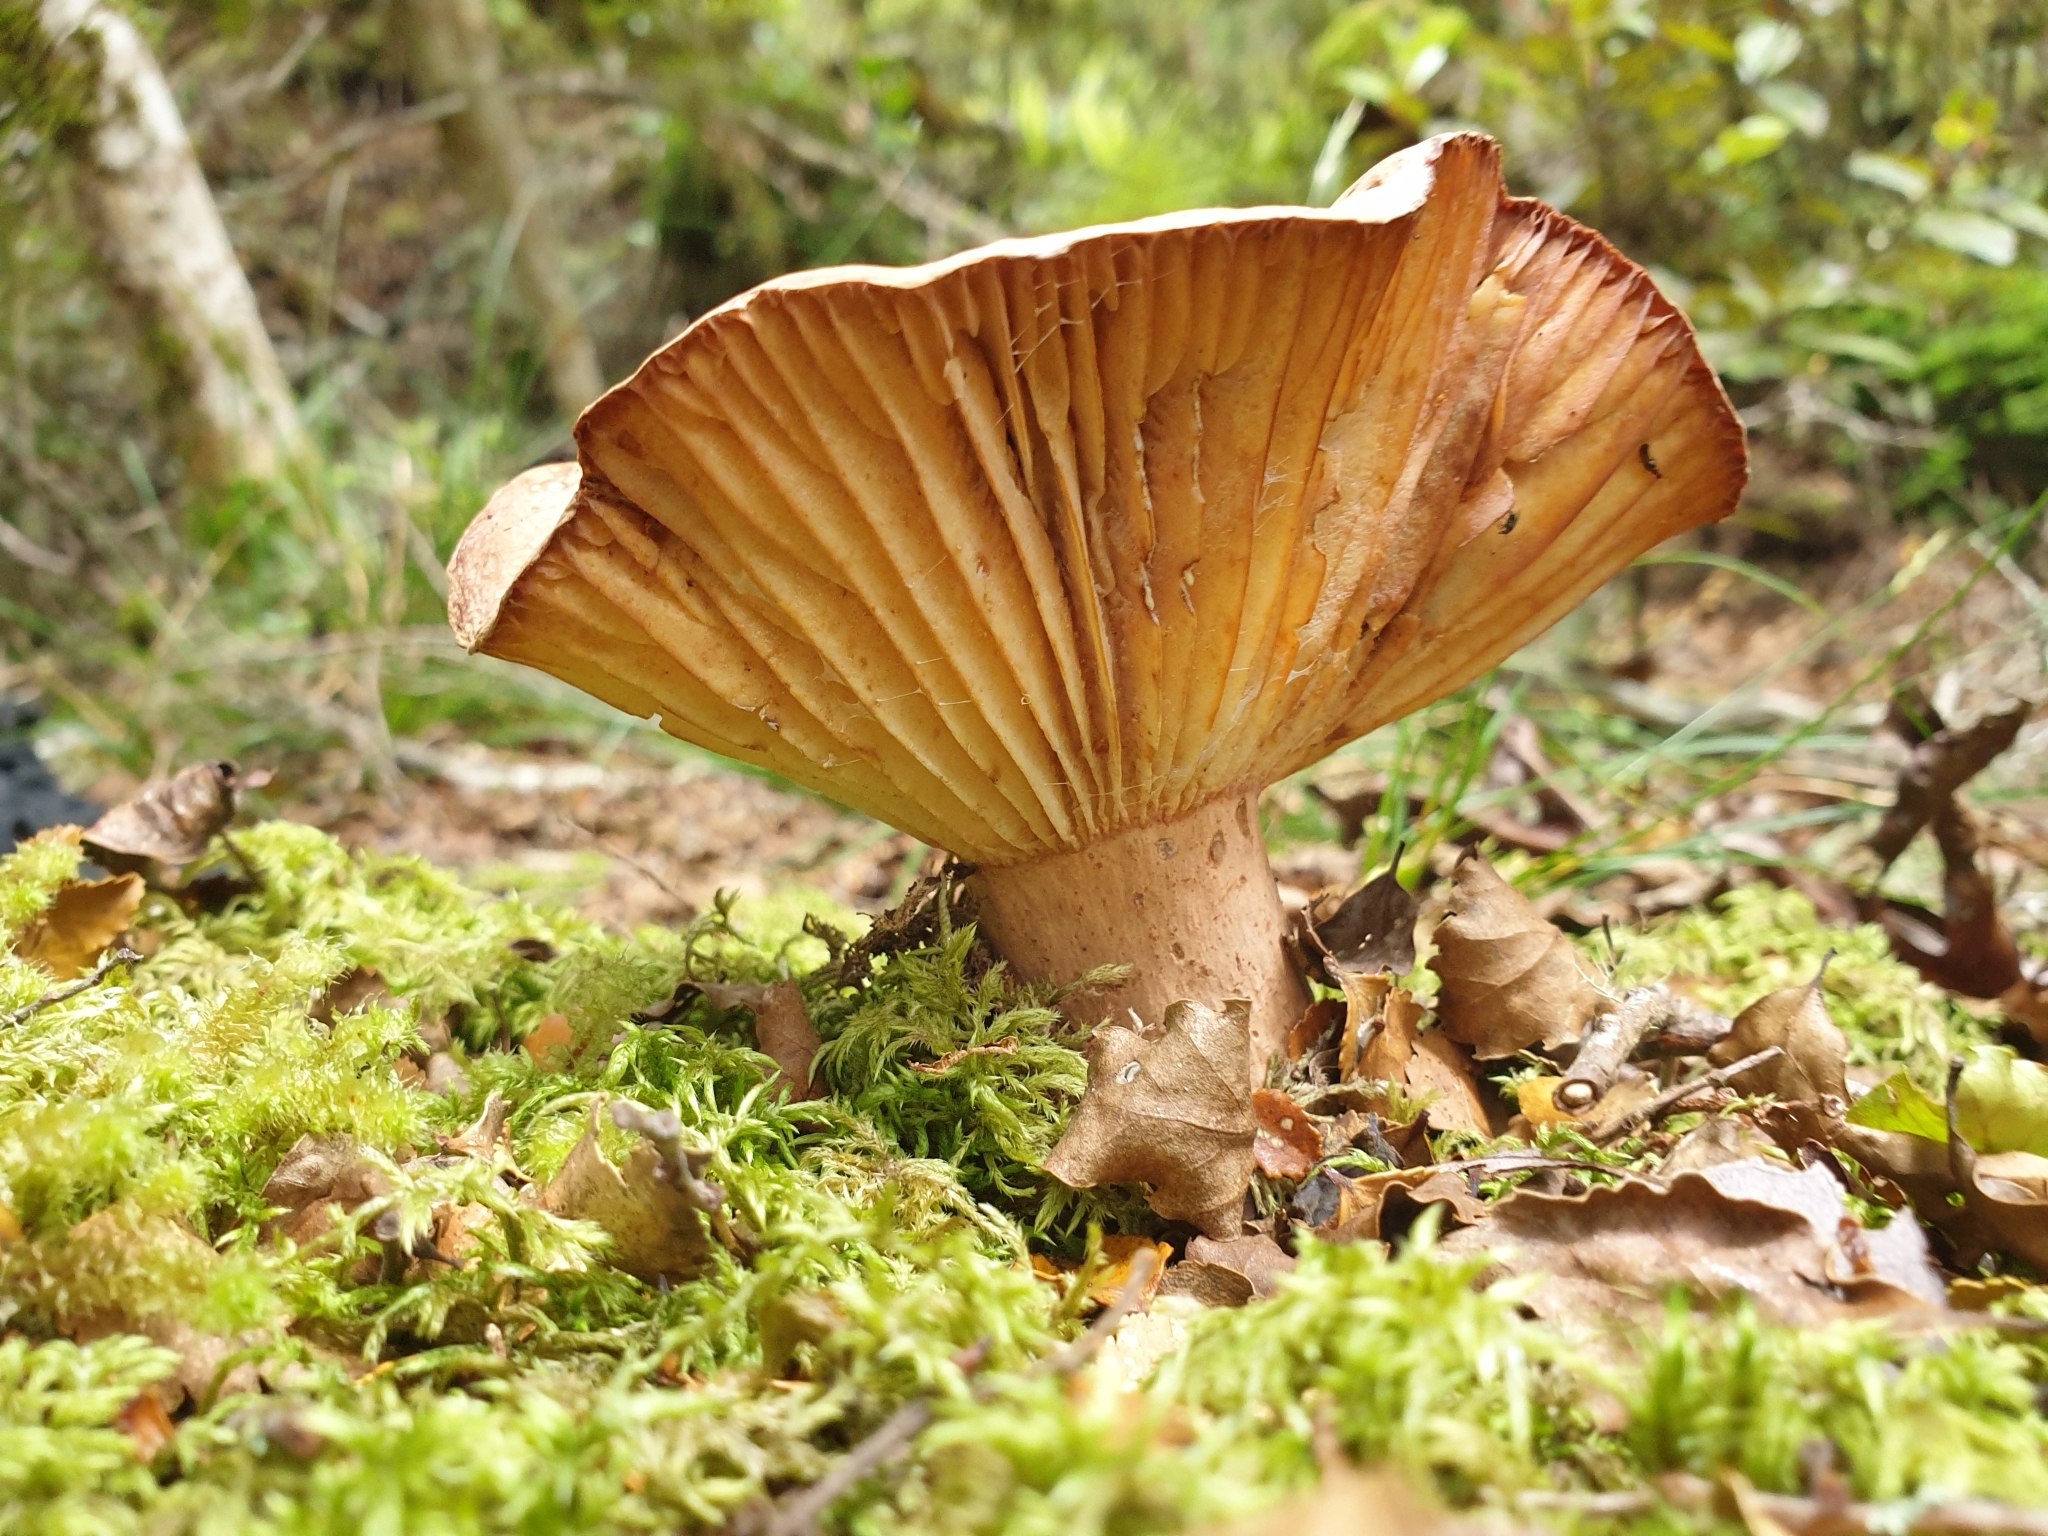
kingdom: Fungi
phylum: Basidiomycota
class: Agaricomycetes
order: Russulales
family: Russulaceae
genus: Lactifluus
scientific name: Lactifluus aurantioruber
